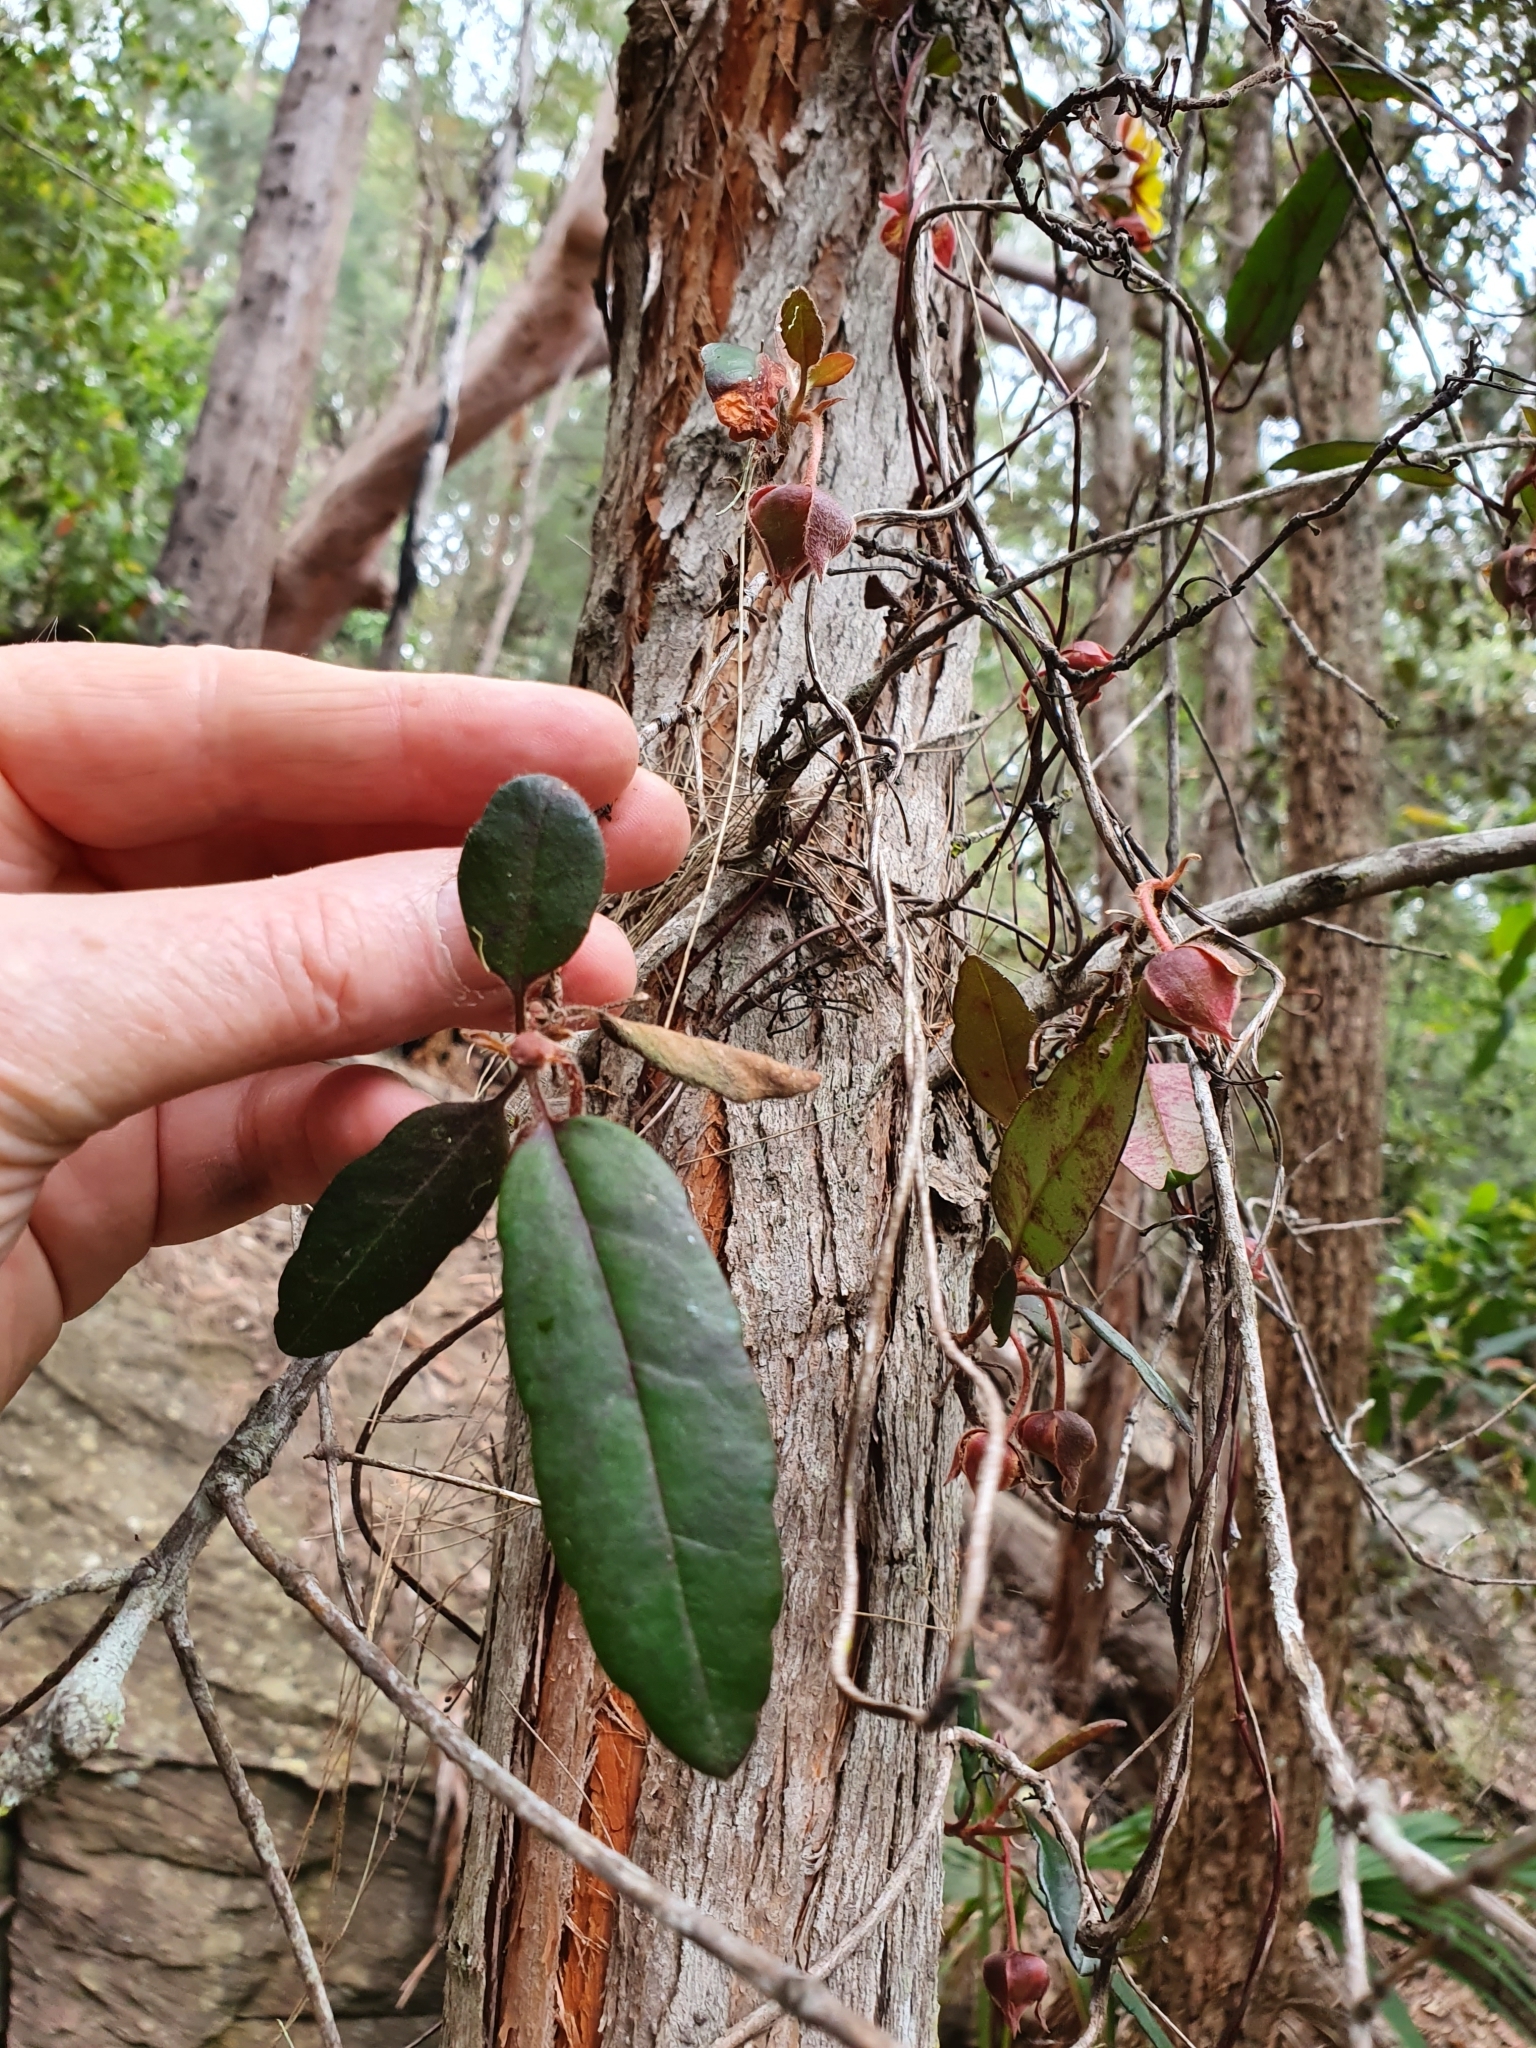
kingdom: Plantae
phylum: Tracheophyta
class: Magnoliopsida
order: Dilleniales
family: Dilleniaceae
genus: Hibbertia
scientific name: Hibbertia dentata
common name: Trailing guinea-flower
